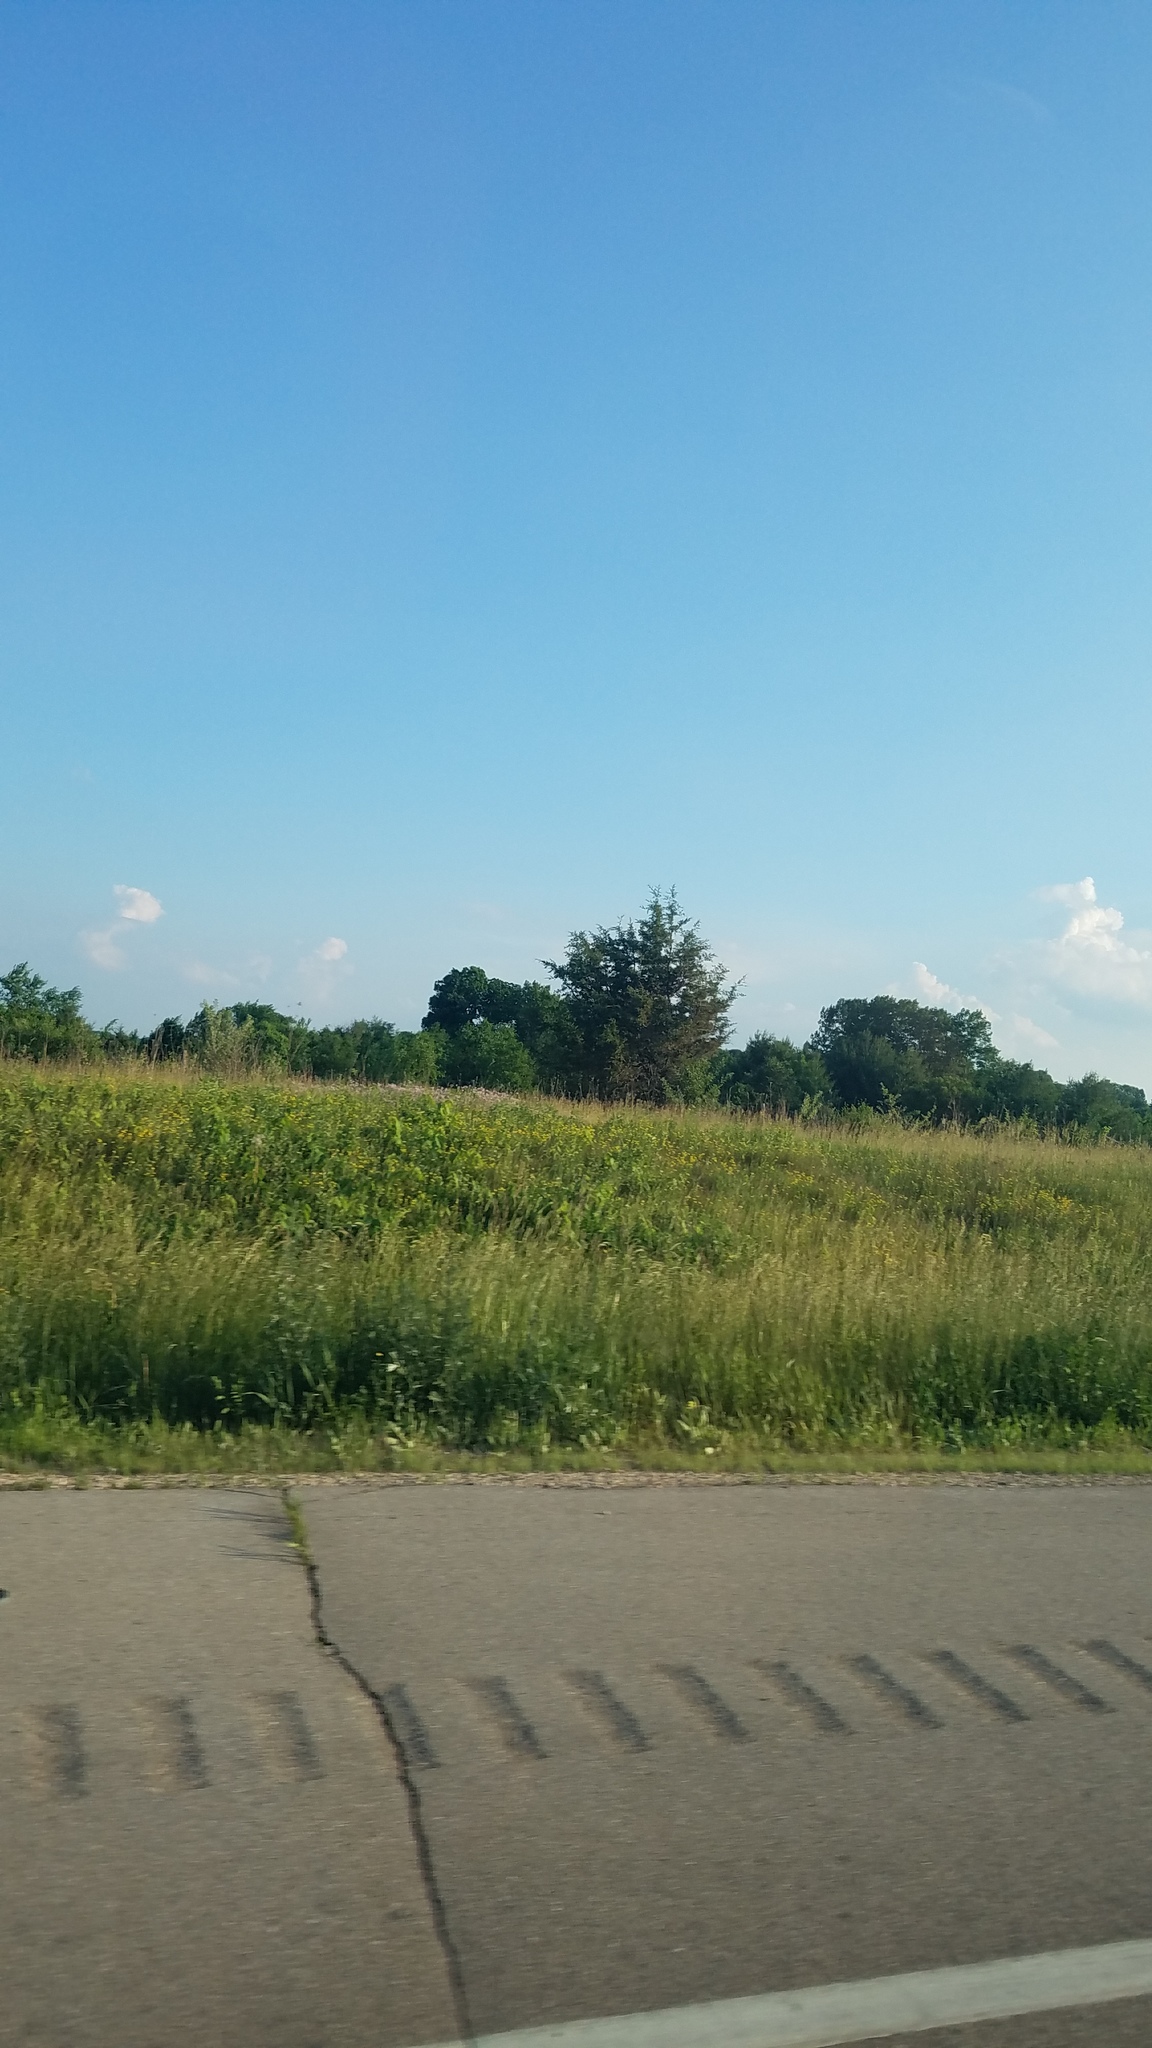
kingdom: Plantae
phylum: Tracheophyta
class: Pinopsida
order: Pinales
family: Cupressaceae
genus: Juniperus
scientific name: Juniperus virginiana
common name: Red juniper
